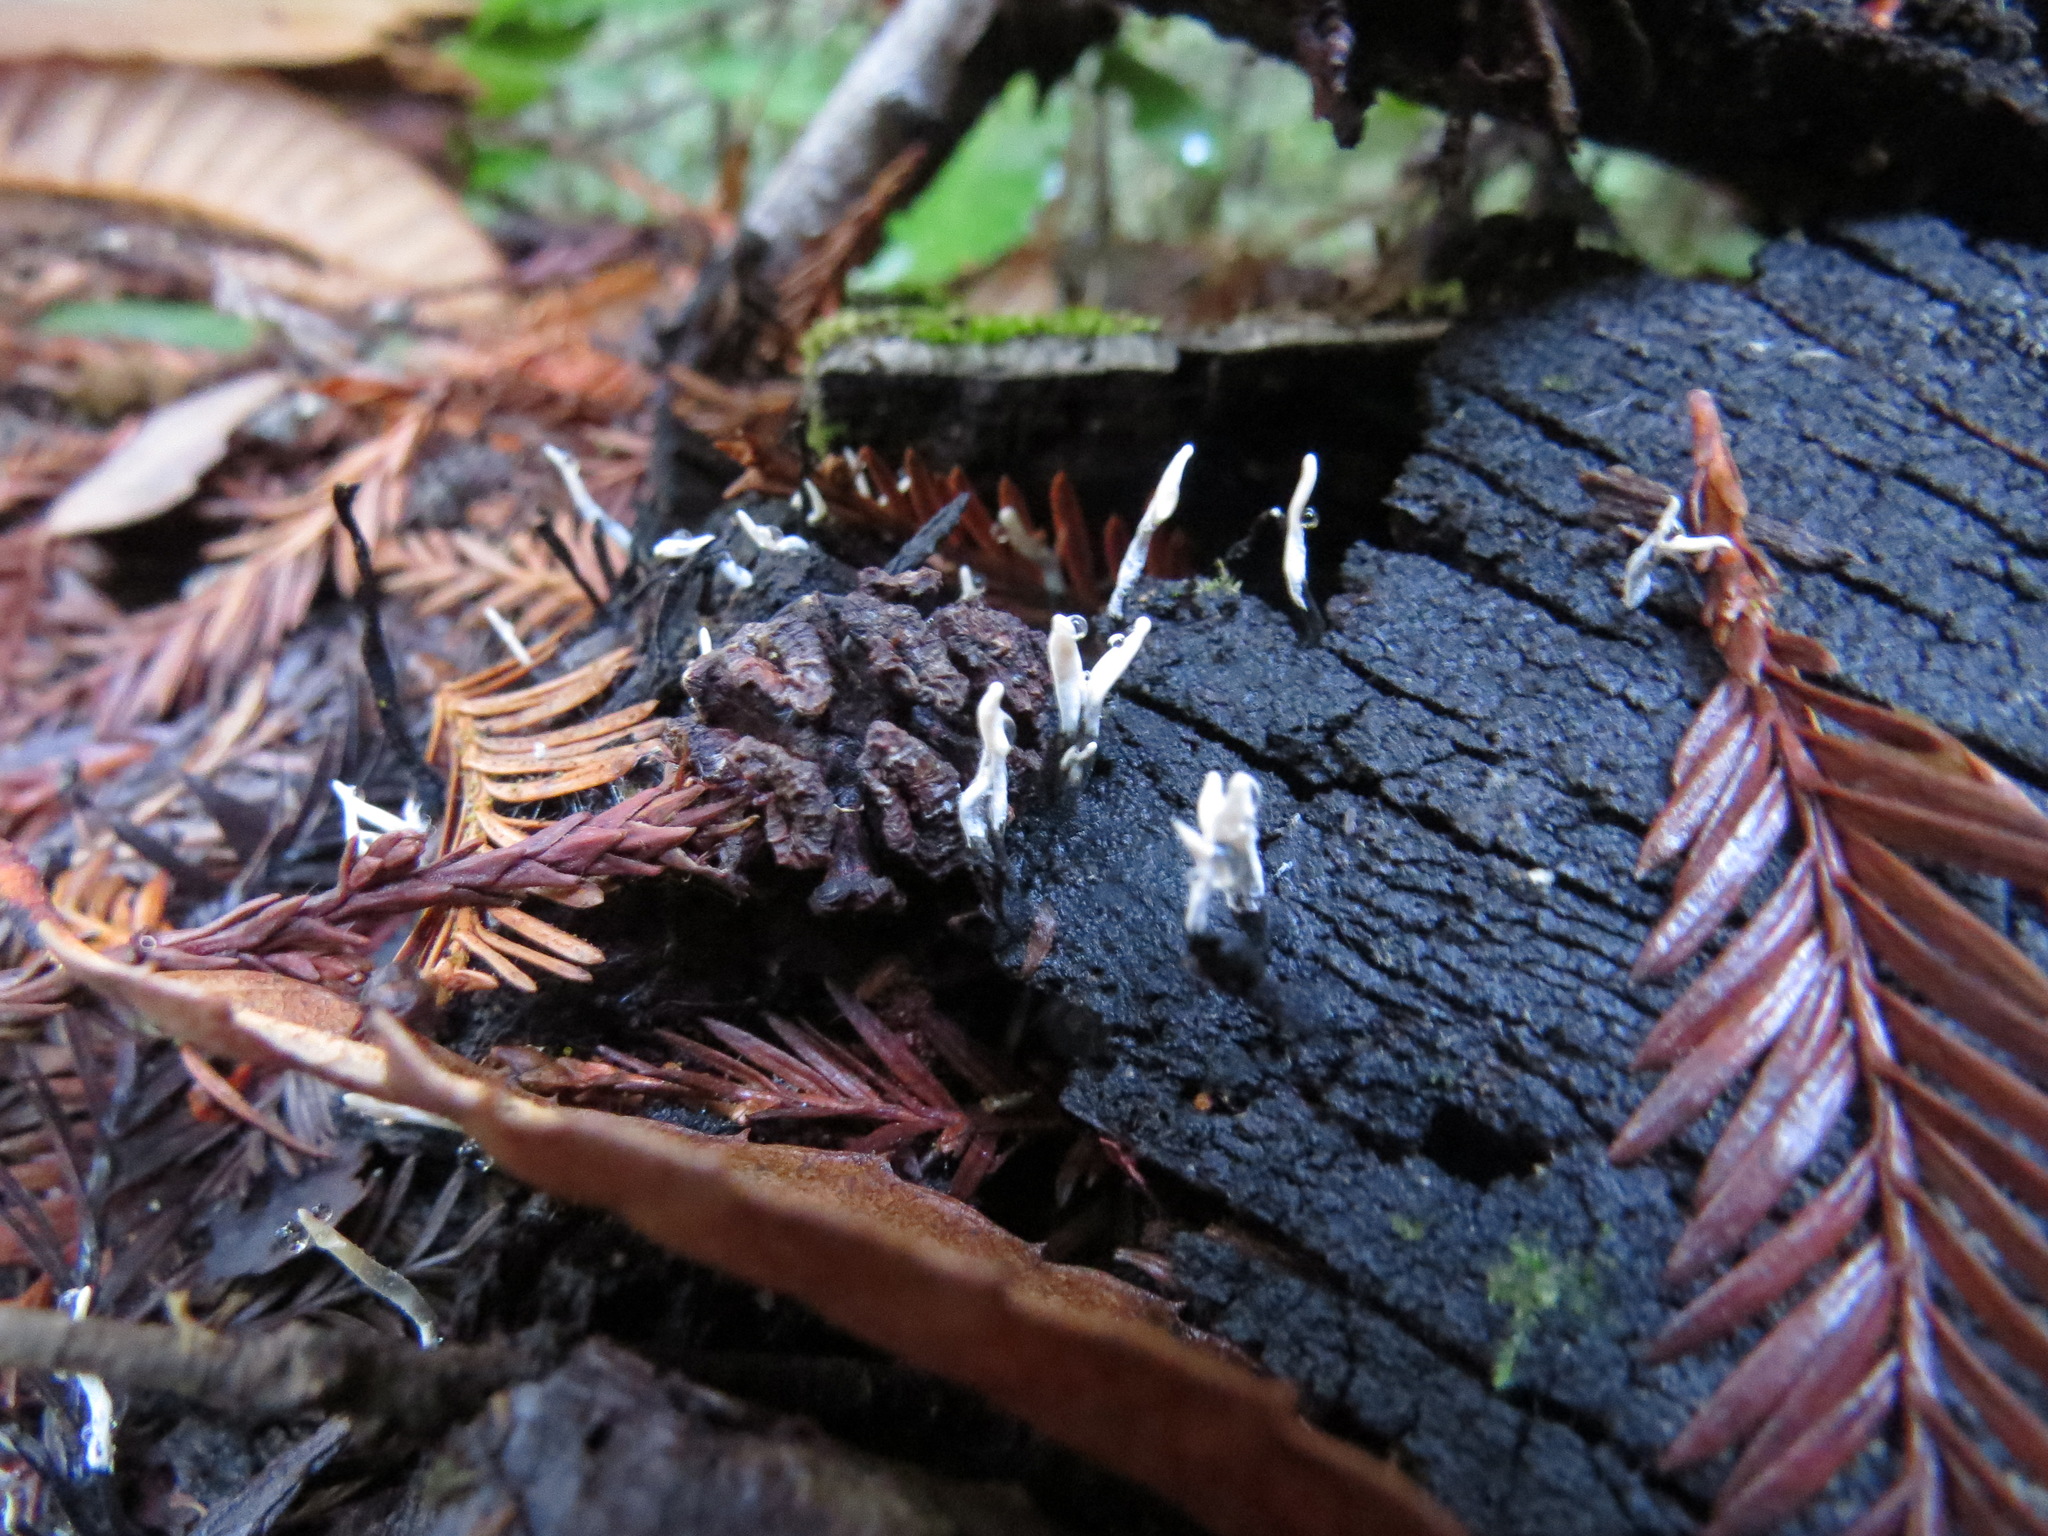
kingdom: Fungi
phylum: Ascomycota
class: Sordariomycetes
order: Xylariales
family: Xylariaceae
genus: Xylaria
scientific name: Xylaria hypoxylon
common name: Candle-snuff fungus
